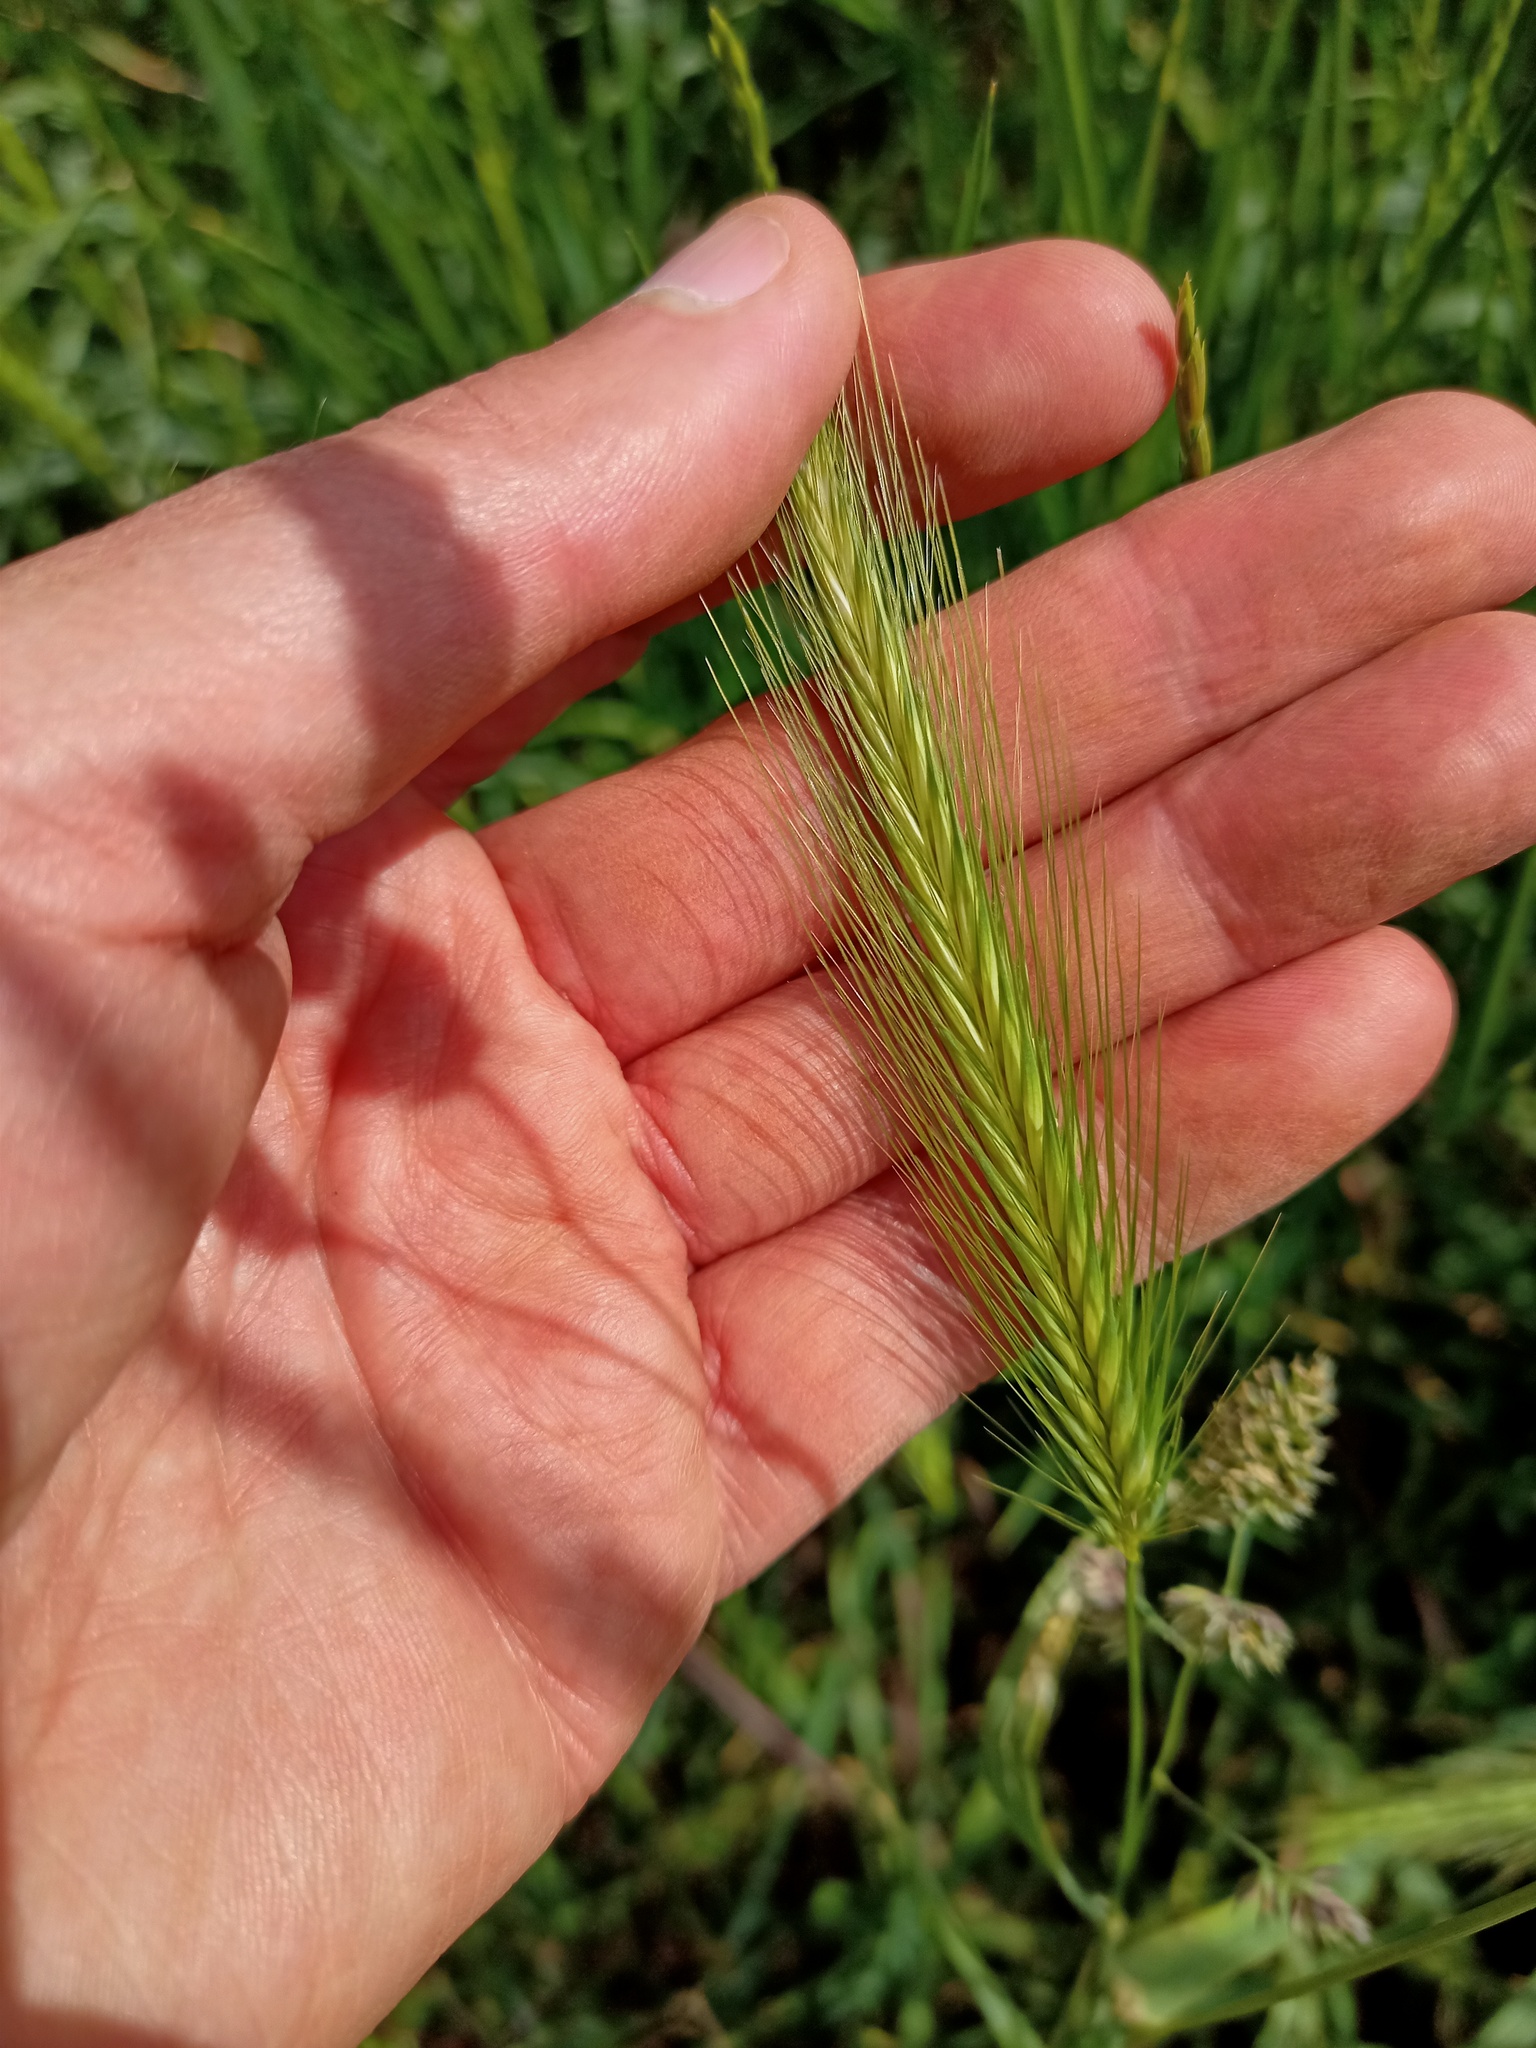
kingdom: Plantae
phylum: Tracheophyta
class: Liliopsida
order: Poales
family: Poaceae
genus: Hordeum
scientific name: Hordeum murinum
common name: Wall barley
